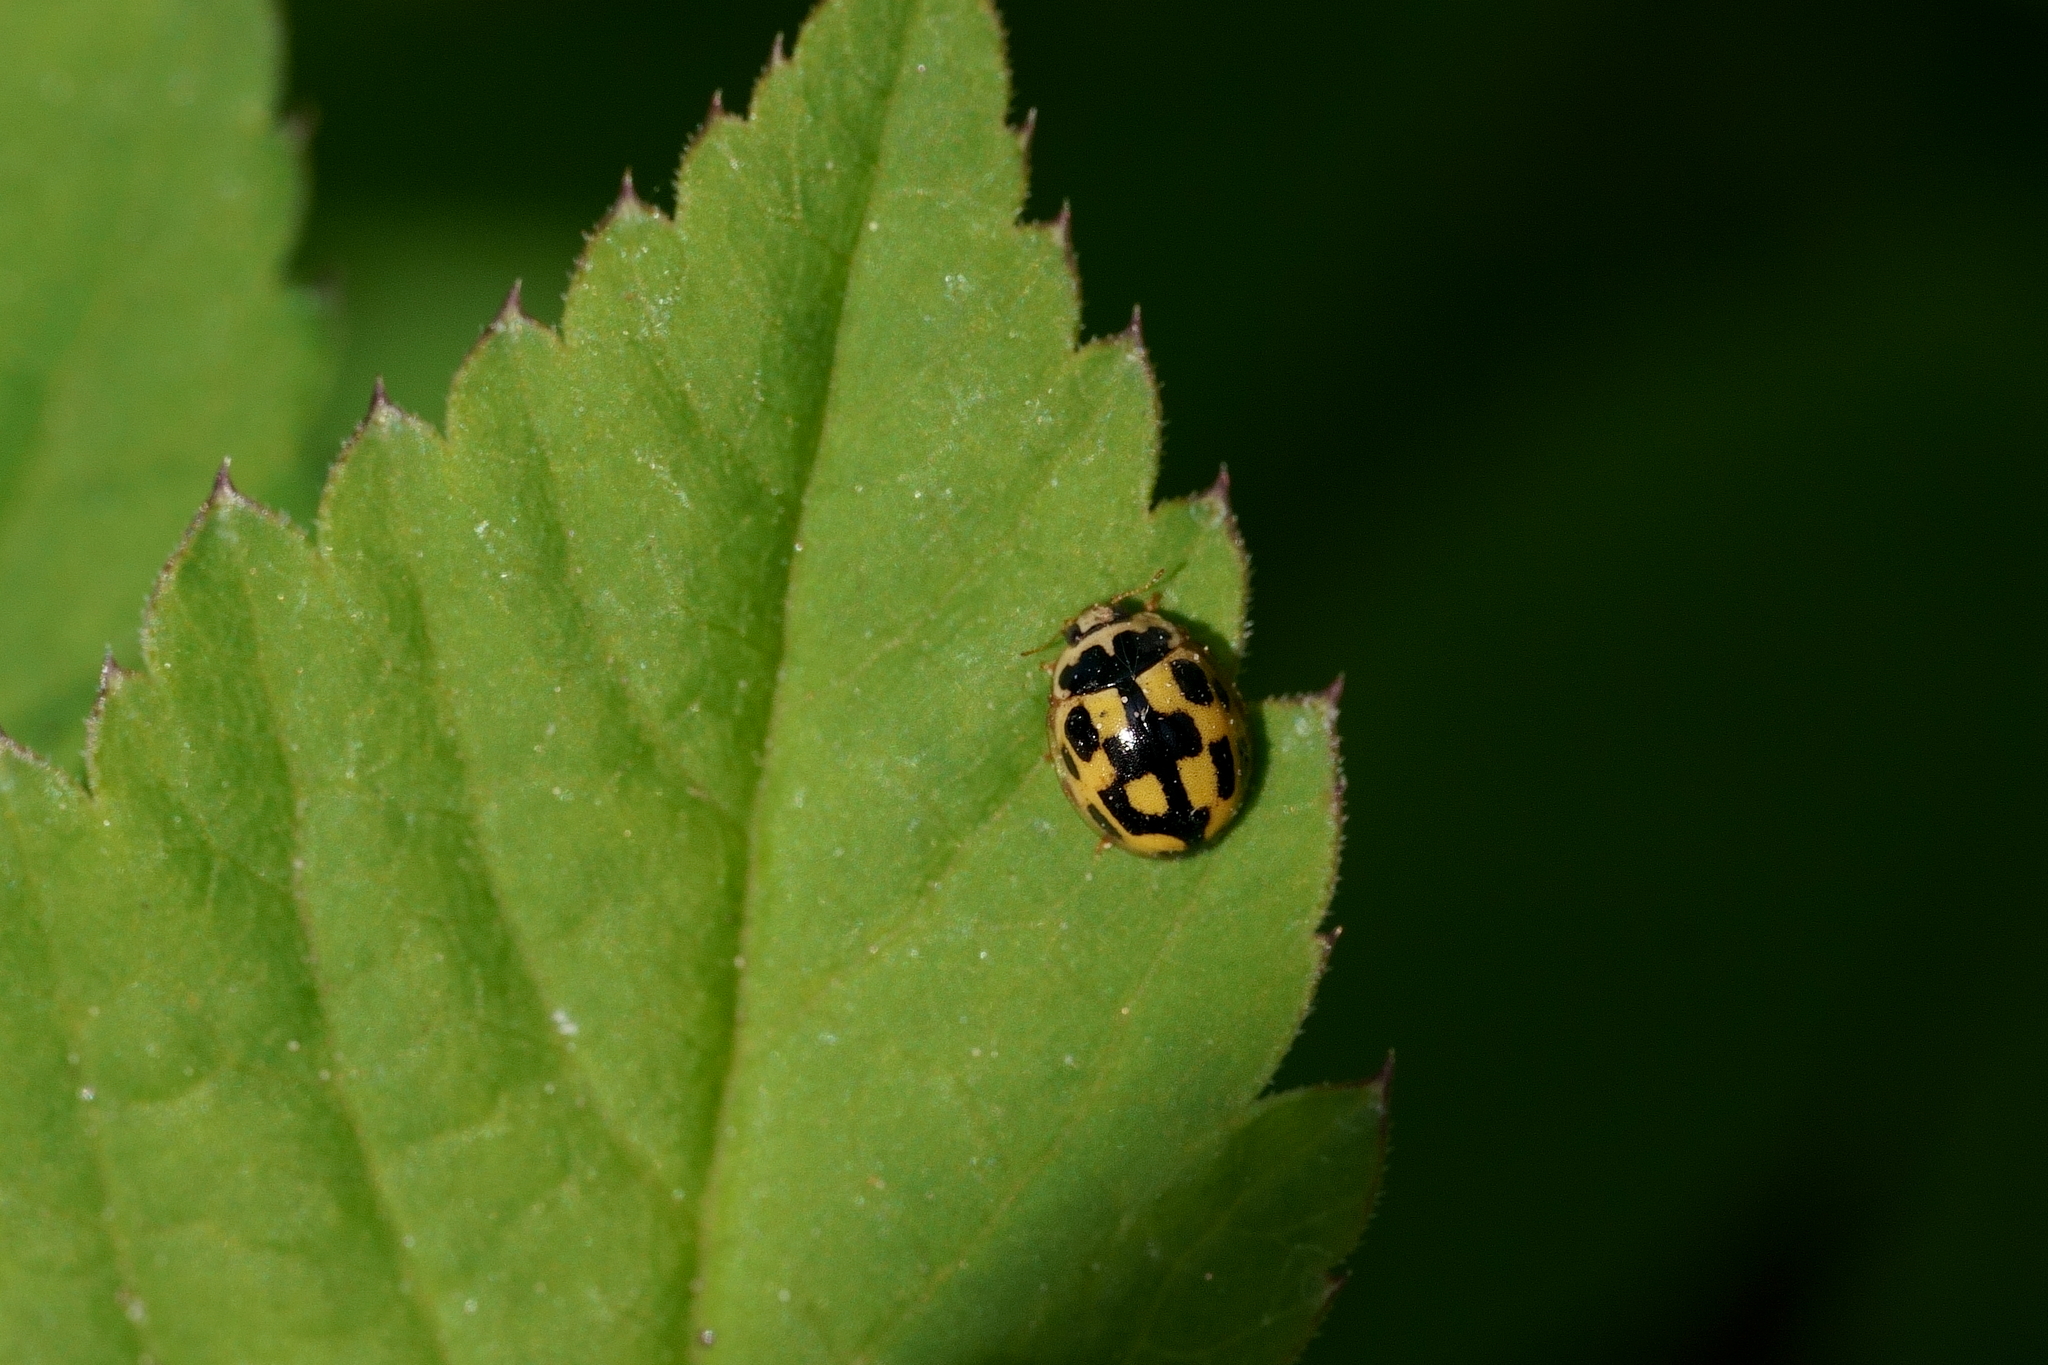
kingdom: Animalia
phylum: Arthropoda
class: Insecta
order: Coleoptera
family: Coccinellidae
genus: Propylaea
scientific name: Propylaea quatuordecimpunctata
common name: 14-spotted ladybird beetle
